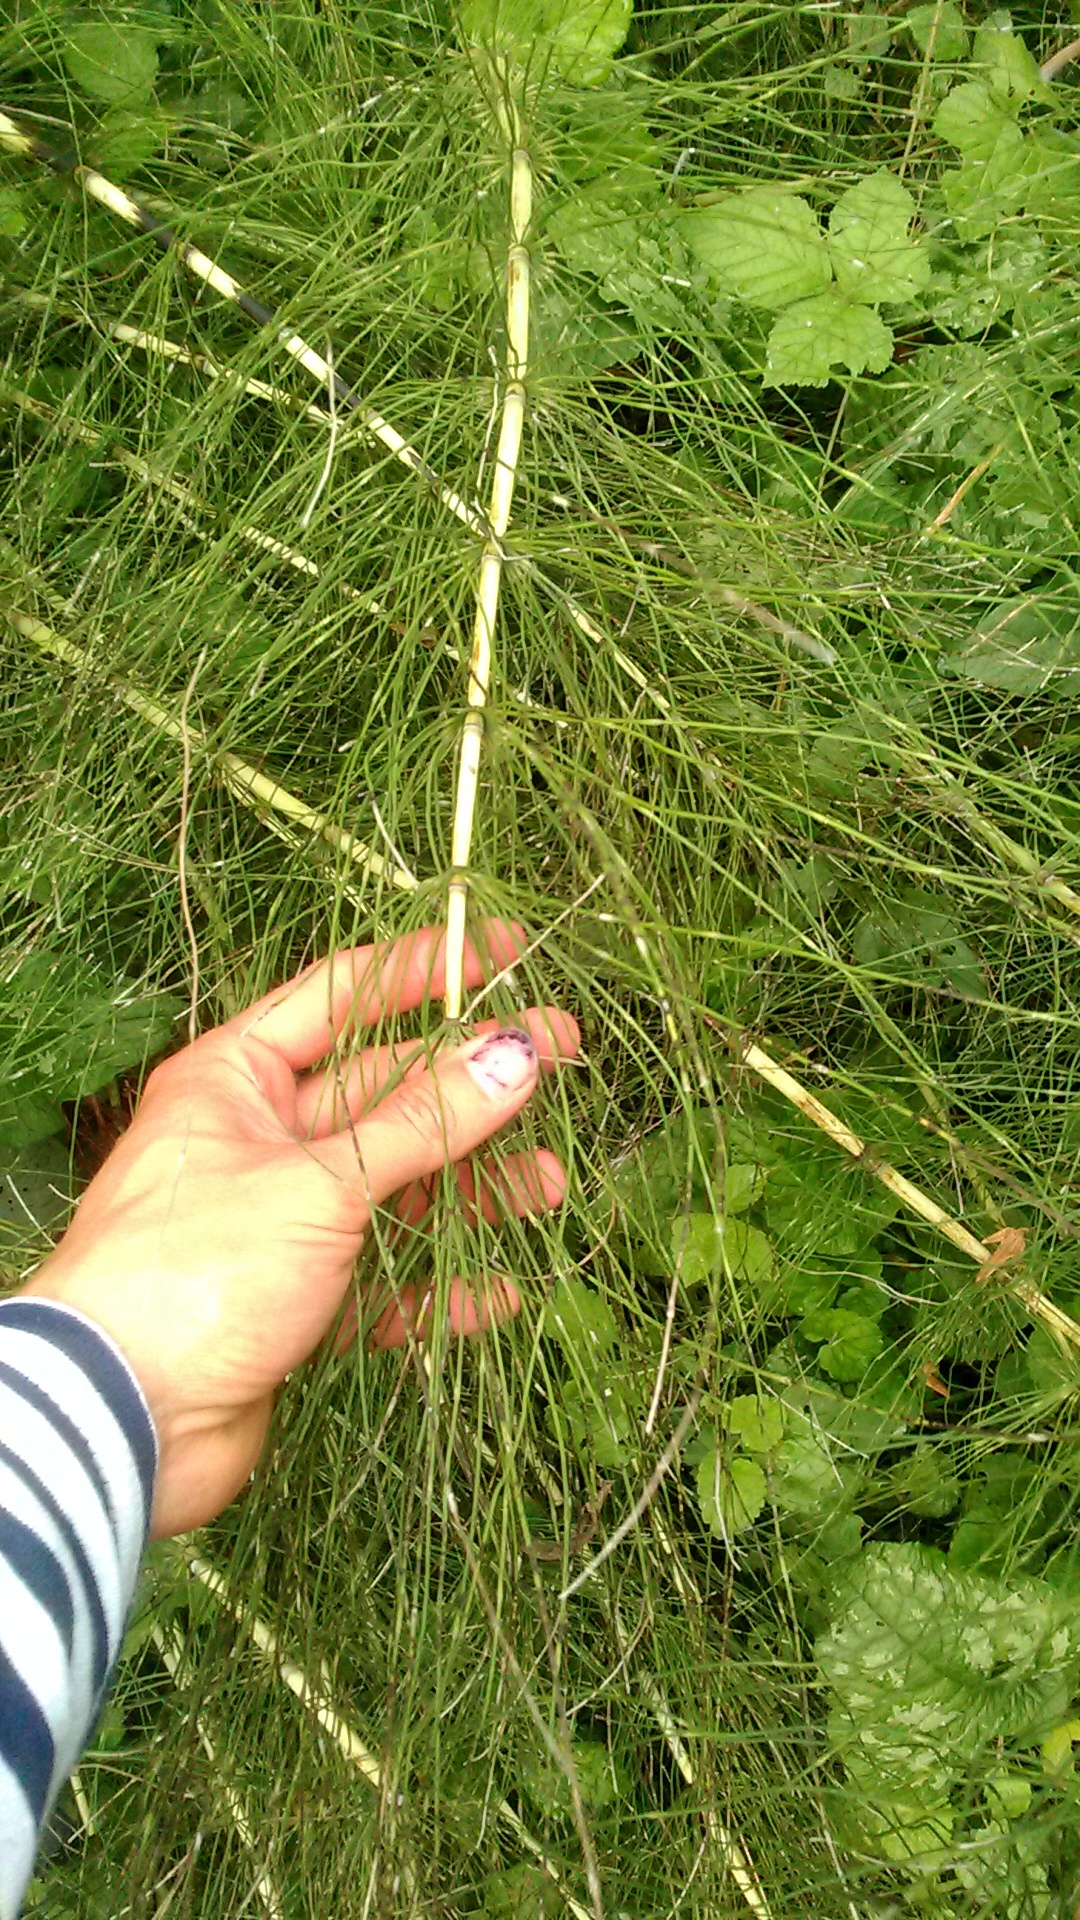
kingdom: Plantae
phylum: Tracheophyta
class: Polypodiopsida
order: Equisetales
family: Equisetaceae
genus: Equisetum
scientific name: Equisetum telmateia
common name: Great horsetail
